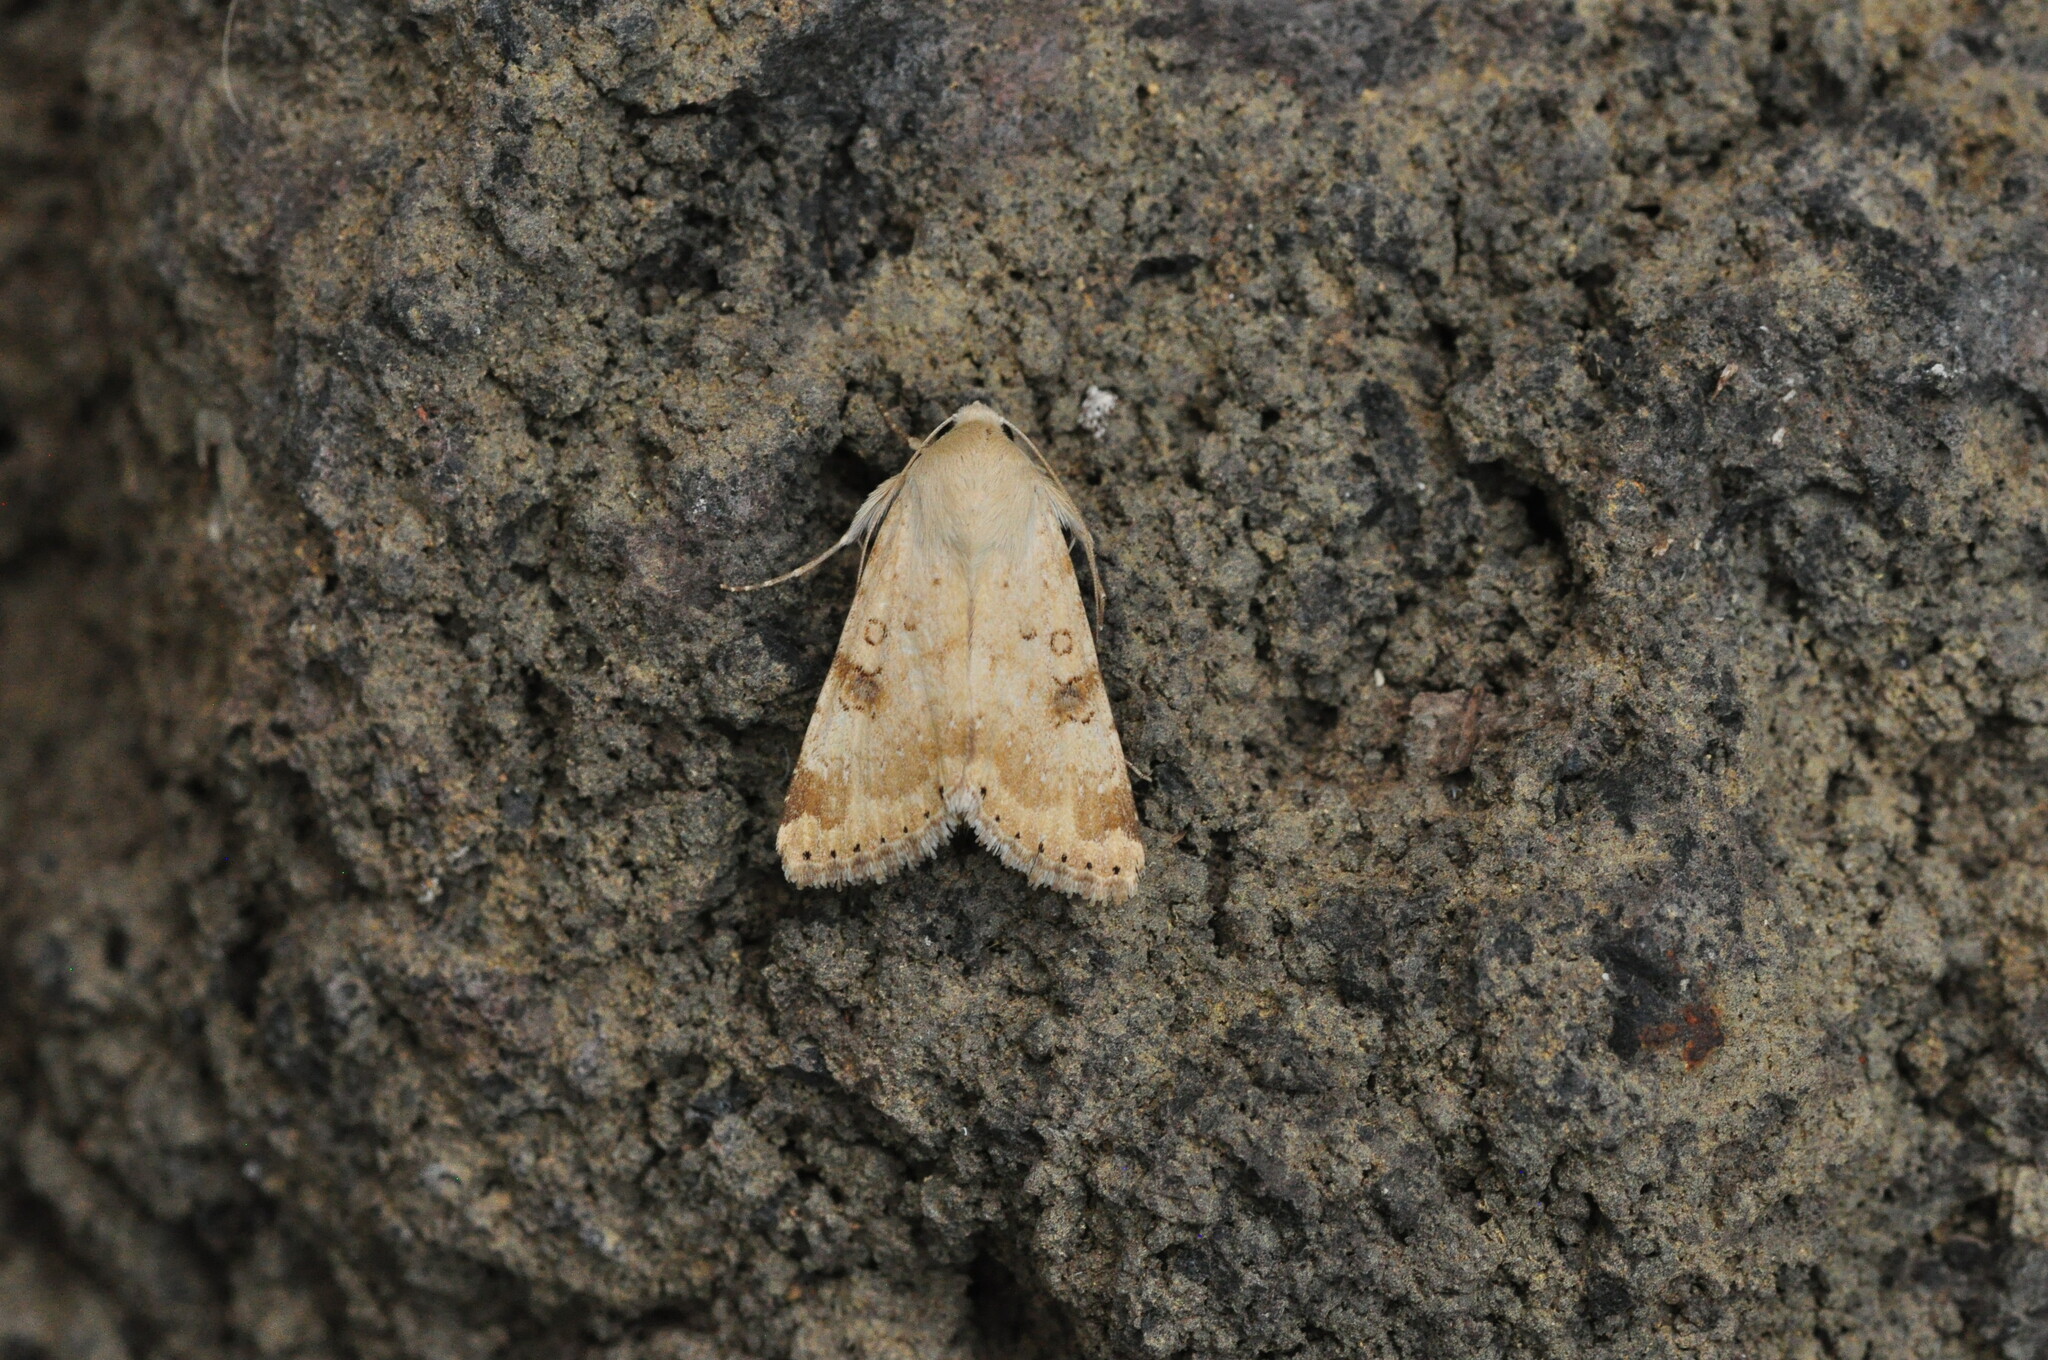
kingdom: Animalia
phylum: Arthropoda
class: Insecta
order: Lepidoptera
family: Noctuidae
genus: Heliothis
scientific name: Heliothis nubigera
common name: Eastern bordered straw
